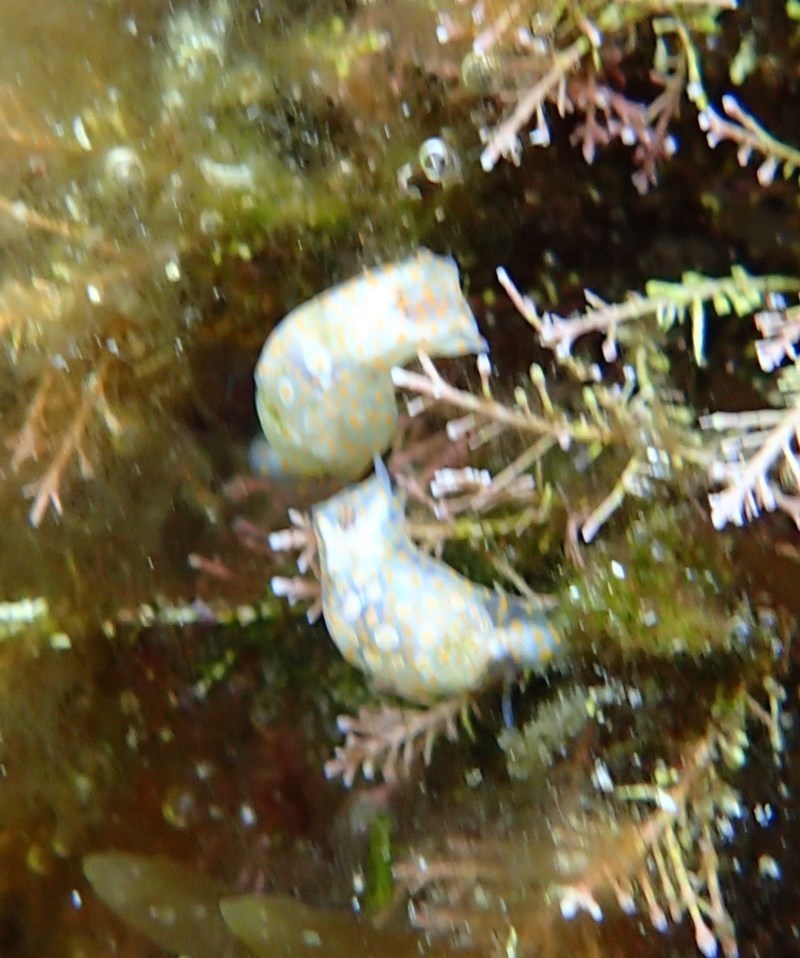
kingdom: Animalia
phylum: Mollusca
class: Gastropoda
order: Cephalaspidea
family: Haminoeidae
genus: Lamprohaminoea
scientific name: Lamprohaminoea cymbalum
